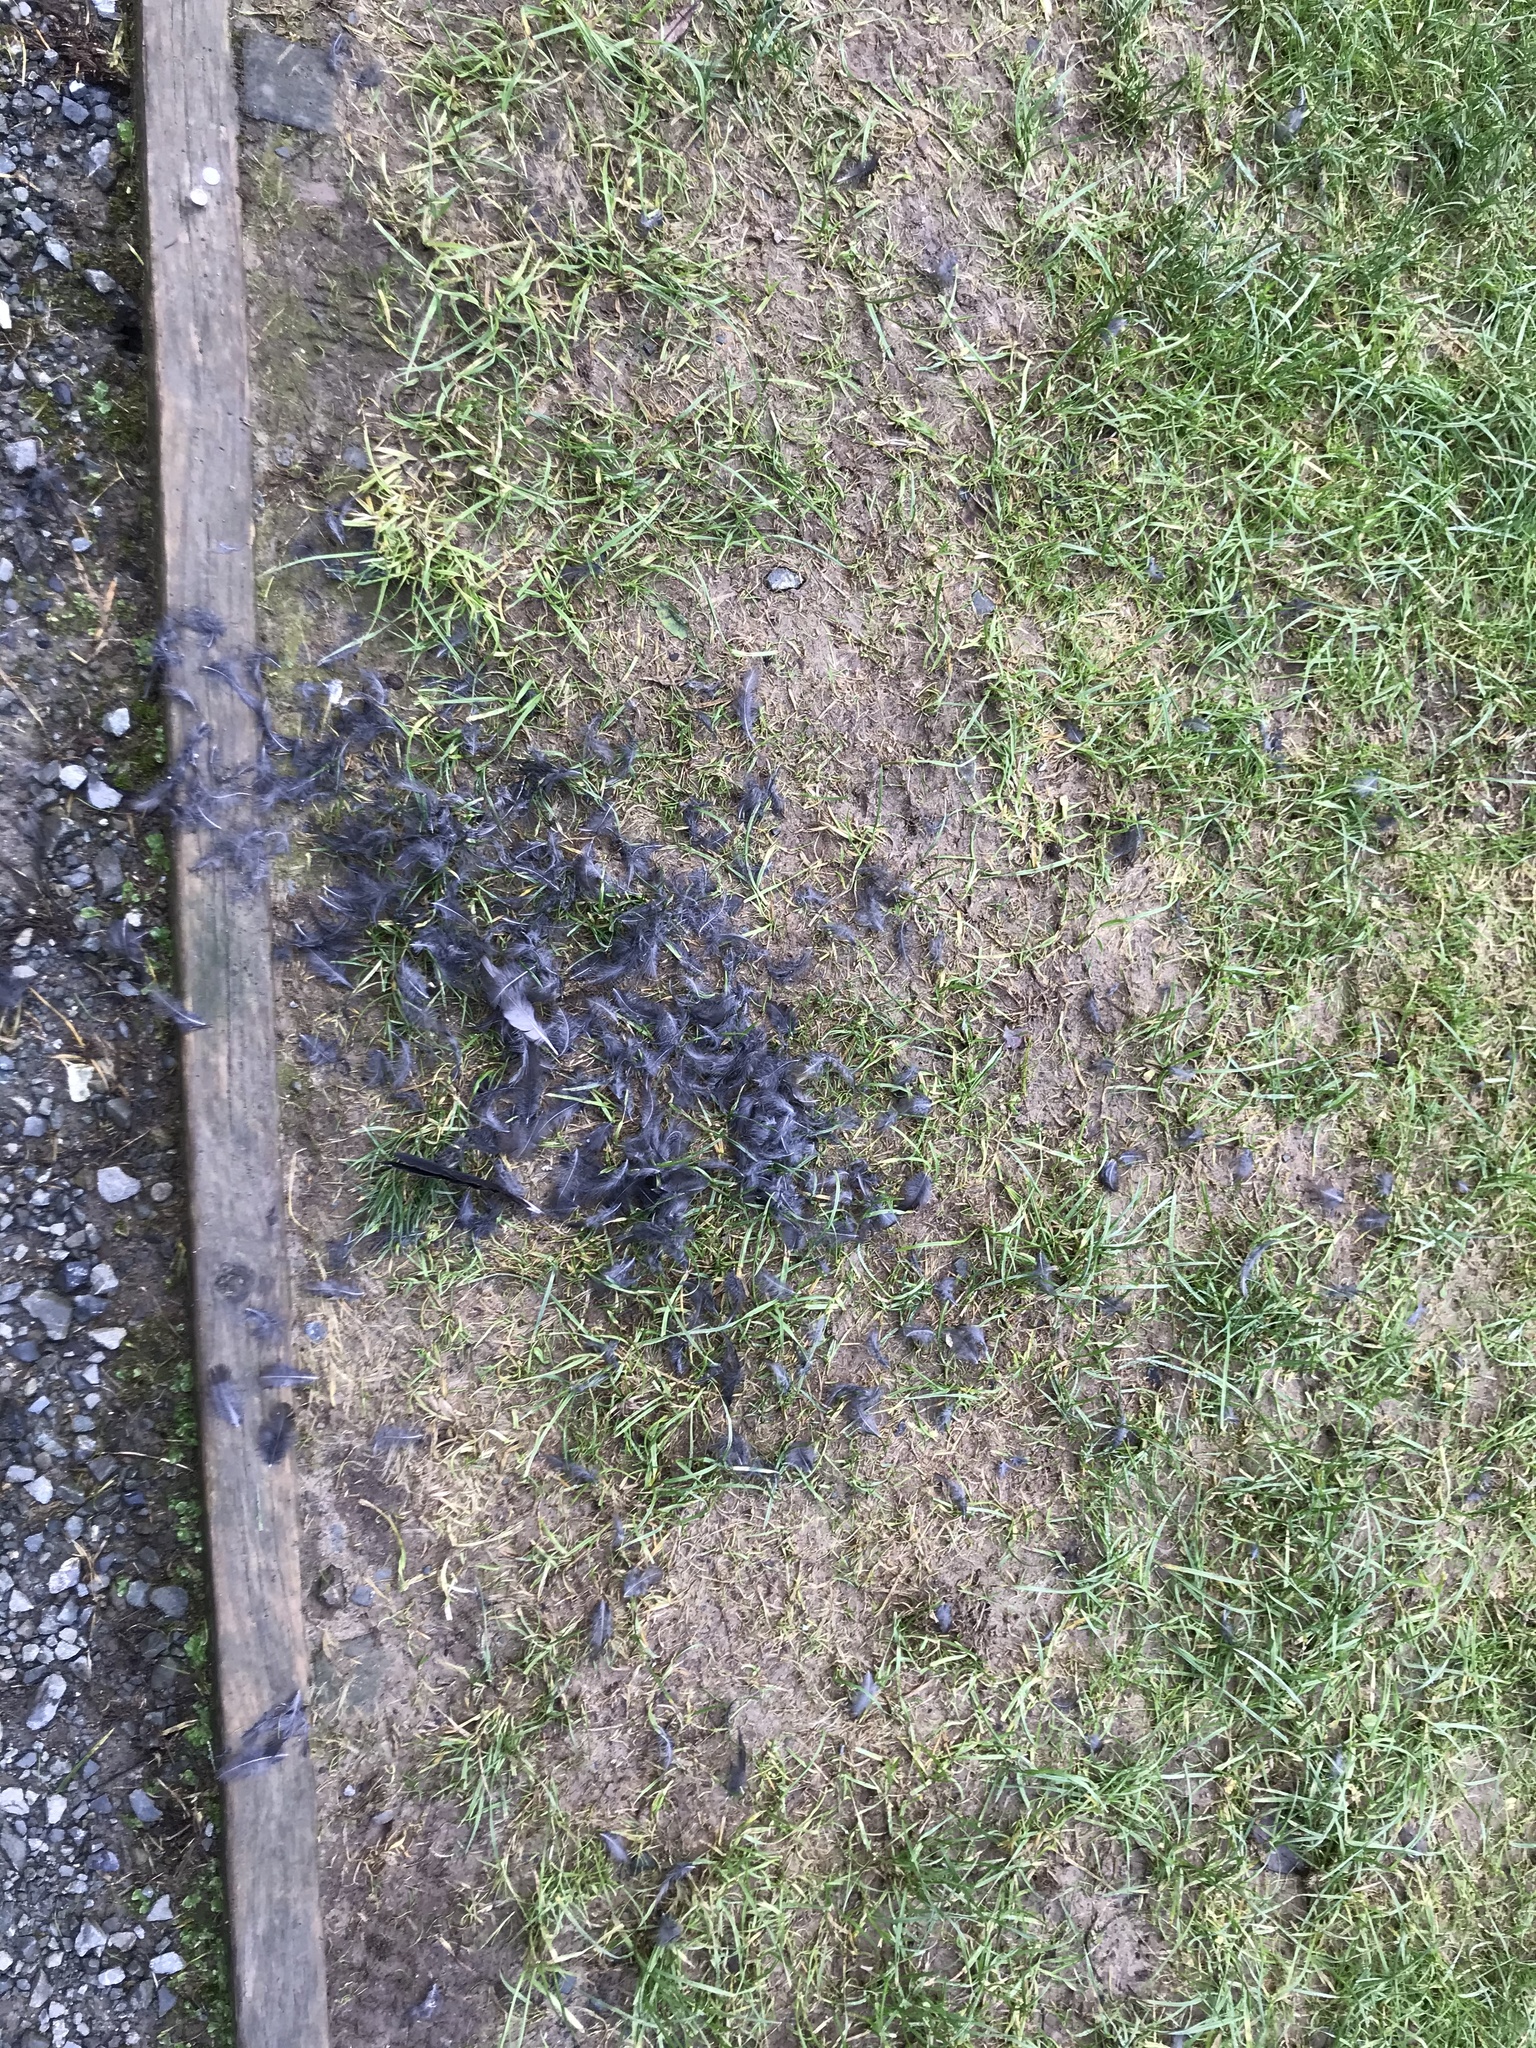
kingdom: Animalia
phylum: Chordata
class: Aves
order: Falconiformes
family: Falconidae
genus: Falco
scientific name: Falco novaeseelandiae
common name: New zealand falcon
